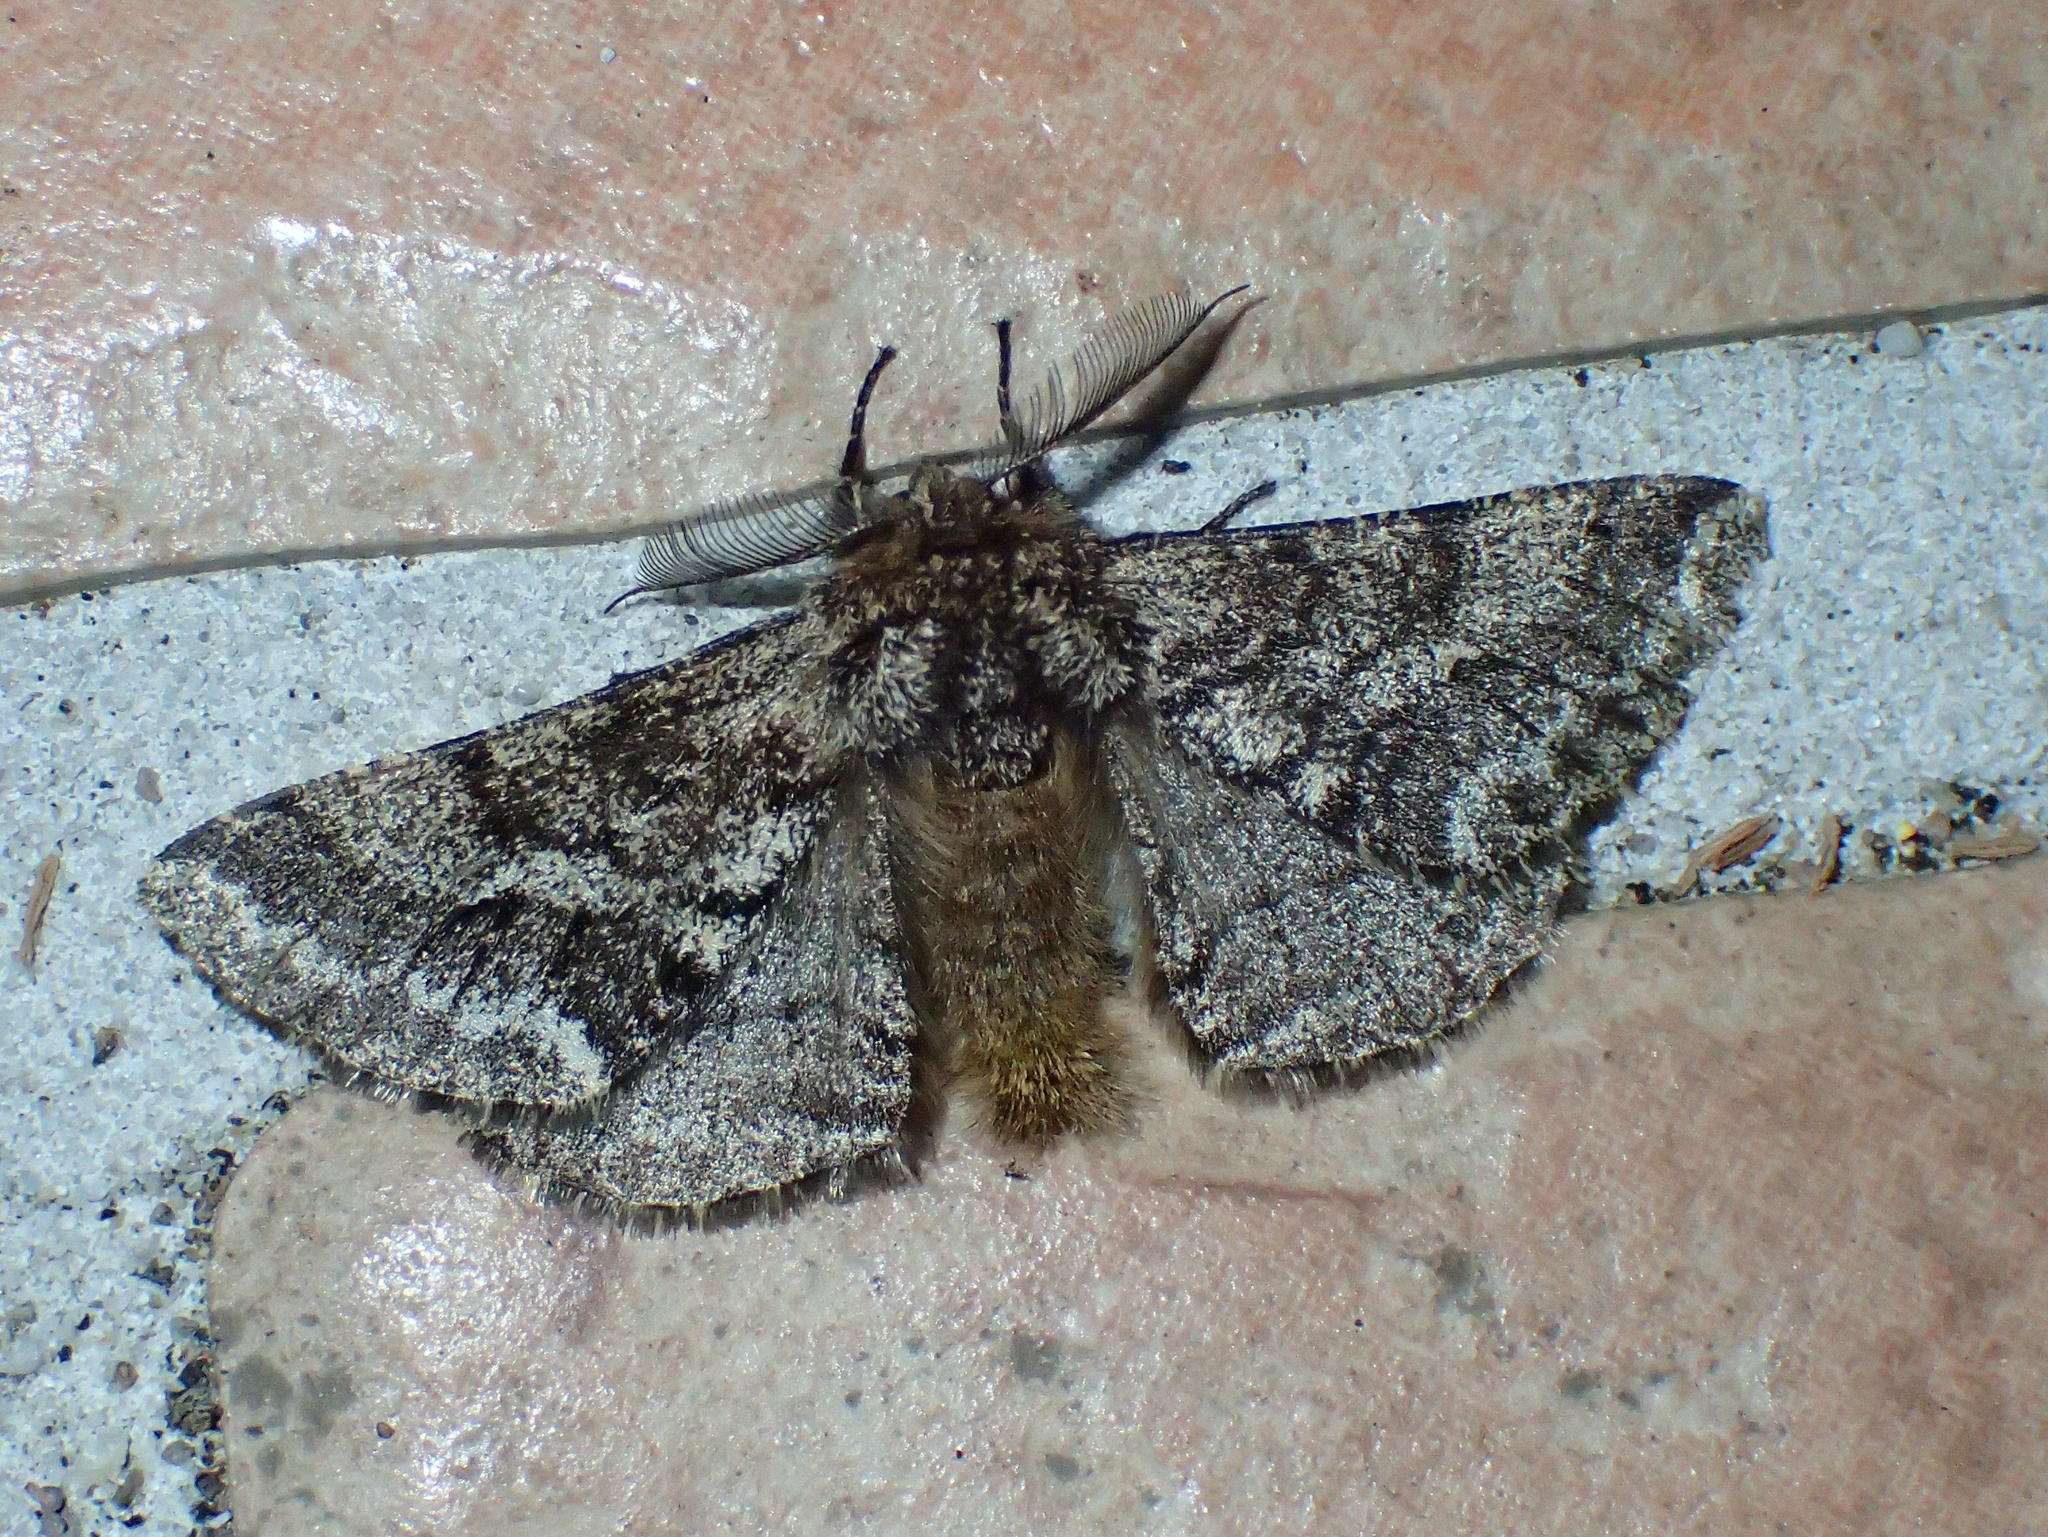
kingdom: Animalia
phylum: Arthropoda
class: Insecta
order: Lepidoptera
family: Geometridae
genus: Lycia
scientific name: Lycia hirtaria
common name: Brindled beauty
